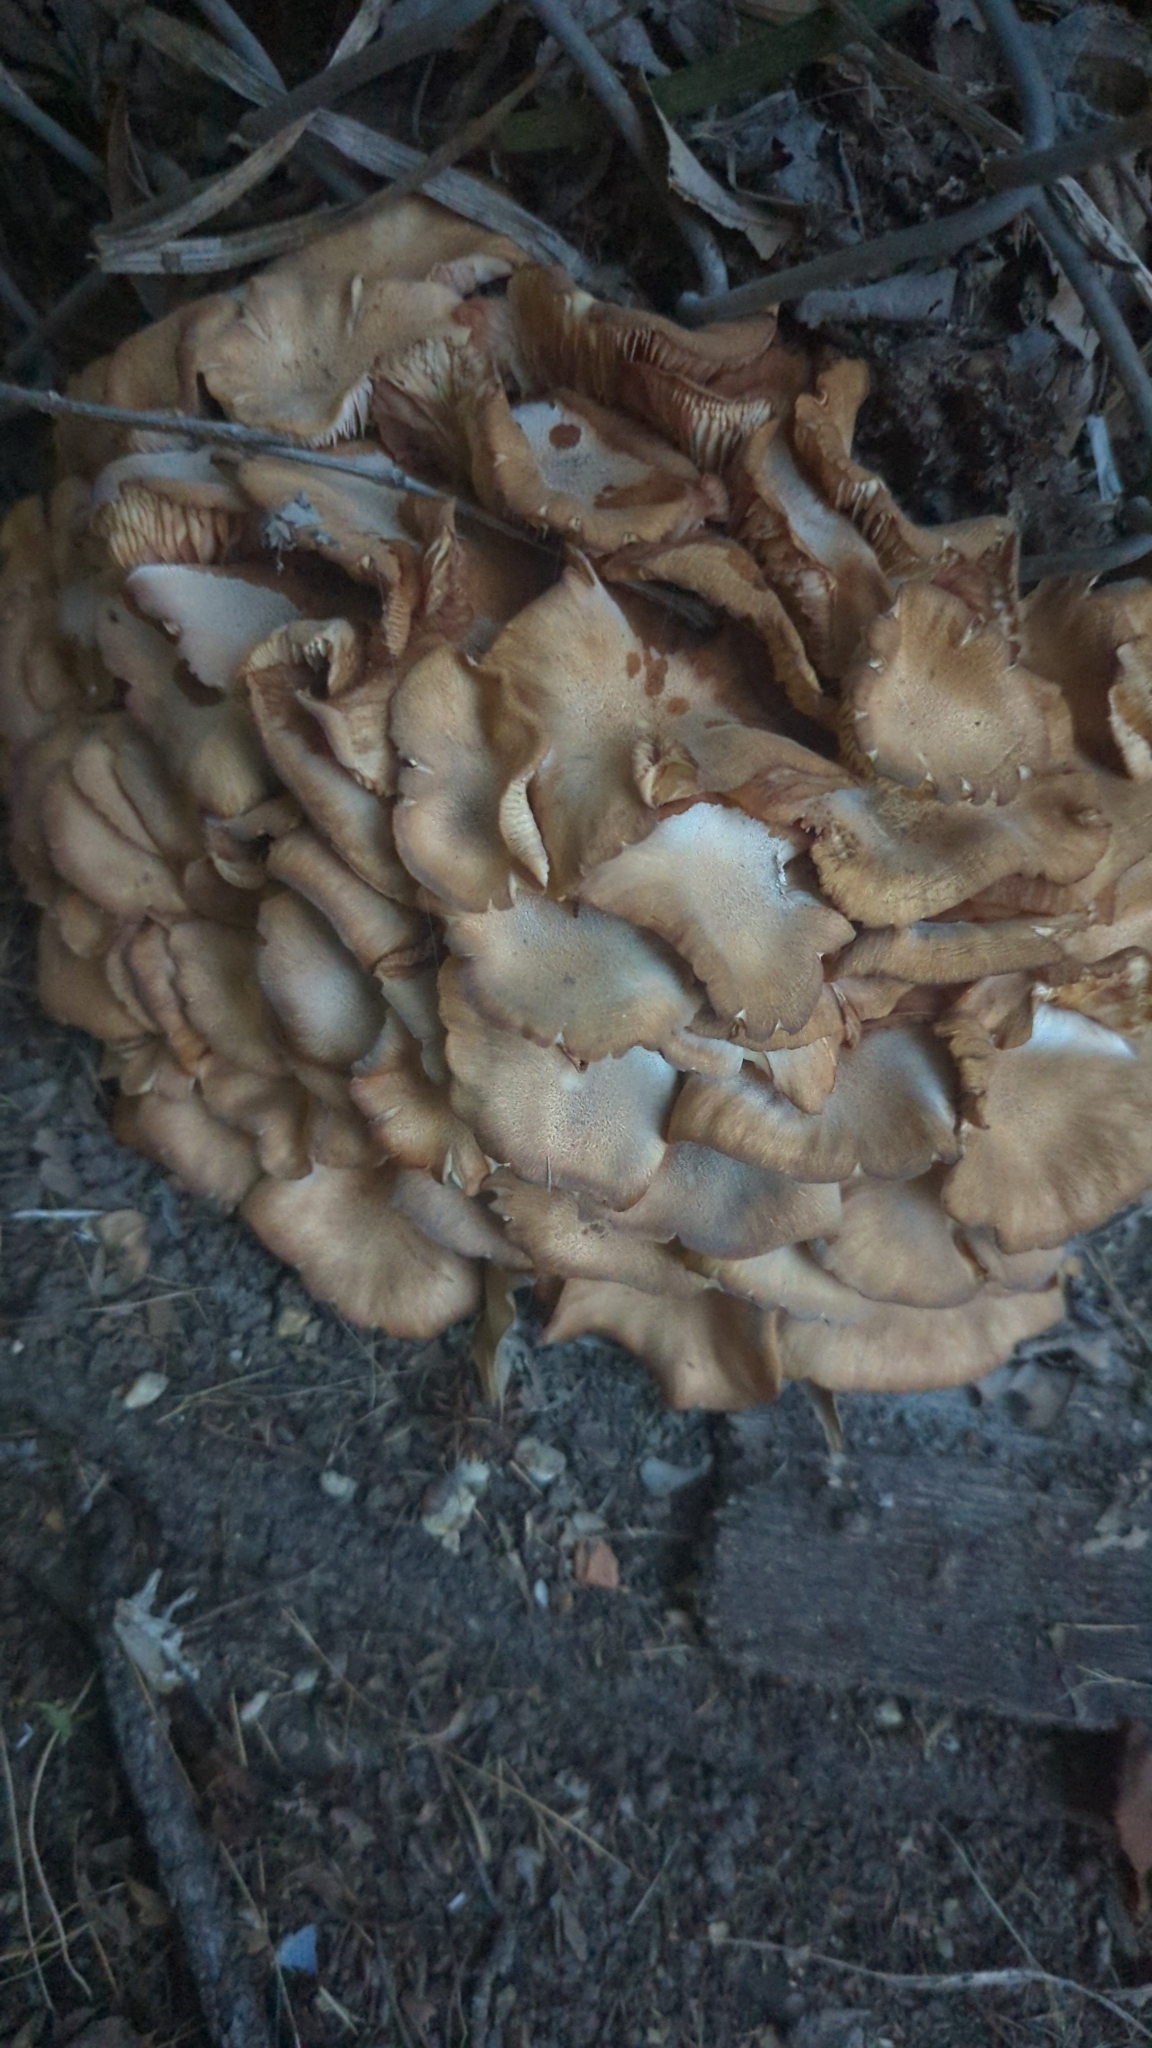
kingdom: Fungi
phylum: Basidiomycota
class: Agaricomycetes
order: Agaricales
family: Physalacriaceae
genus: Desarmillaria
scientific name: Desarmillaria caespitosa
